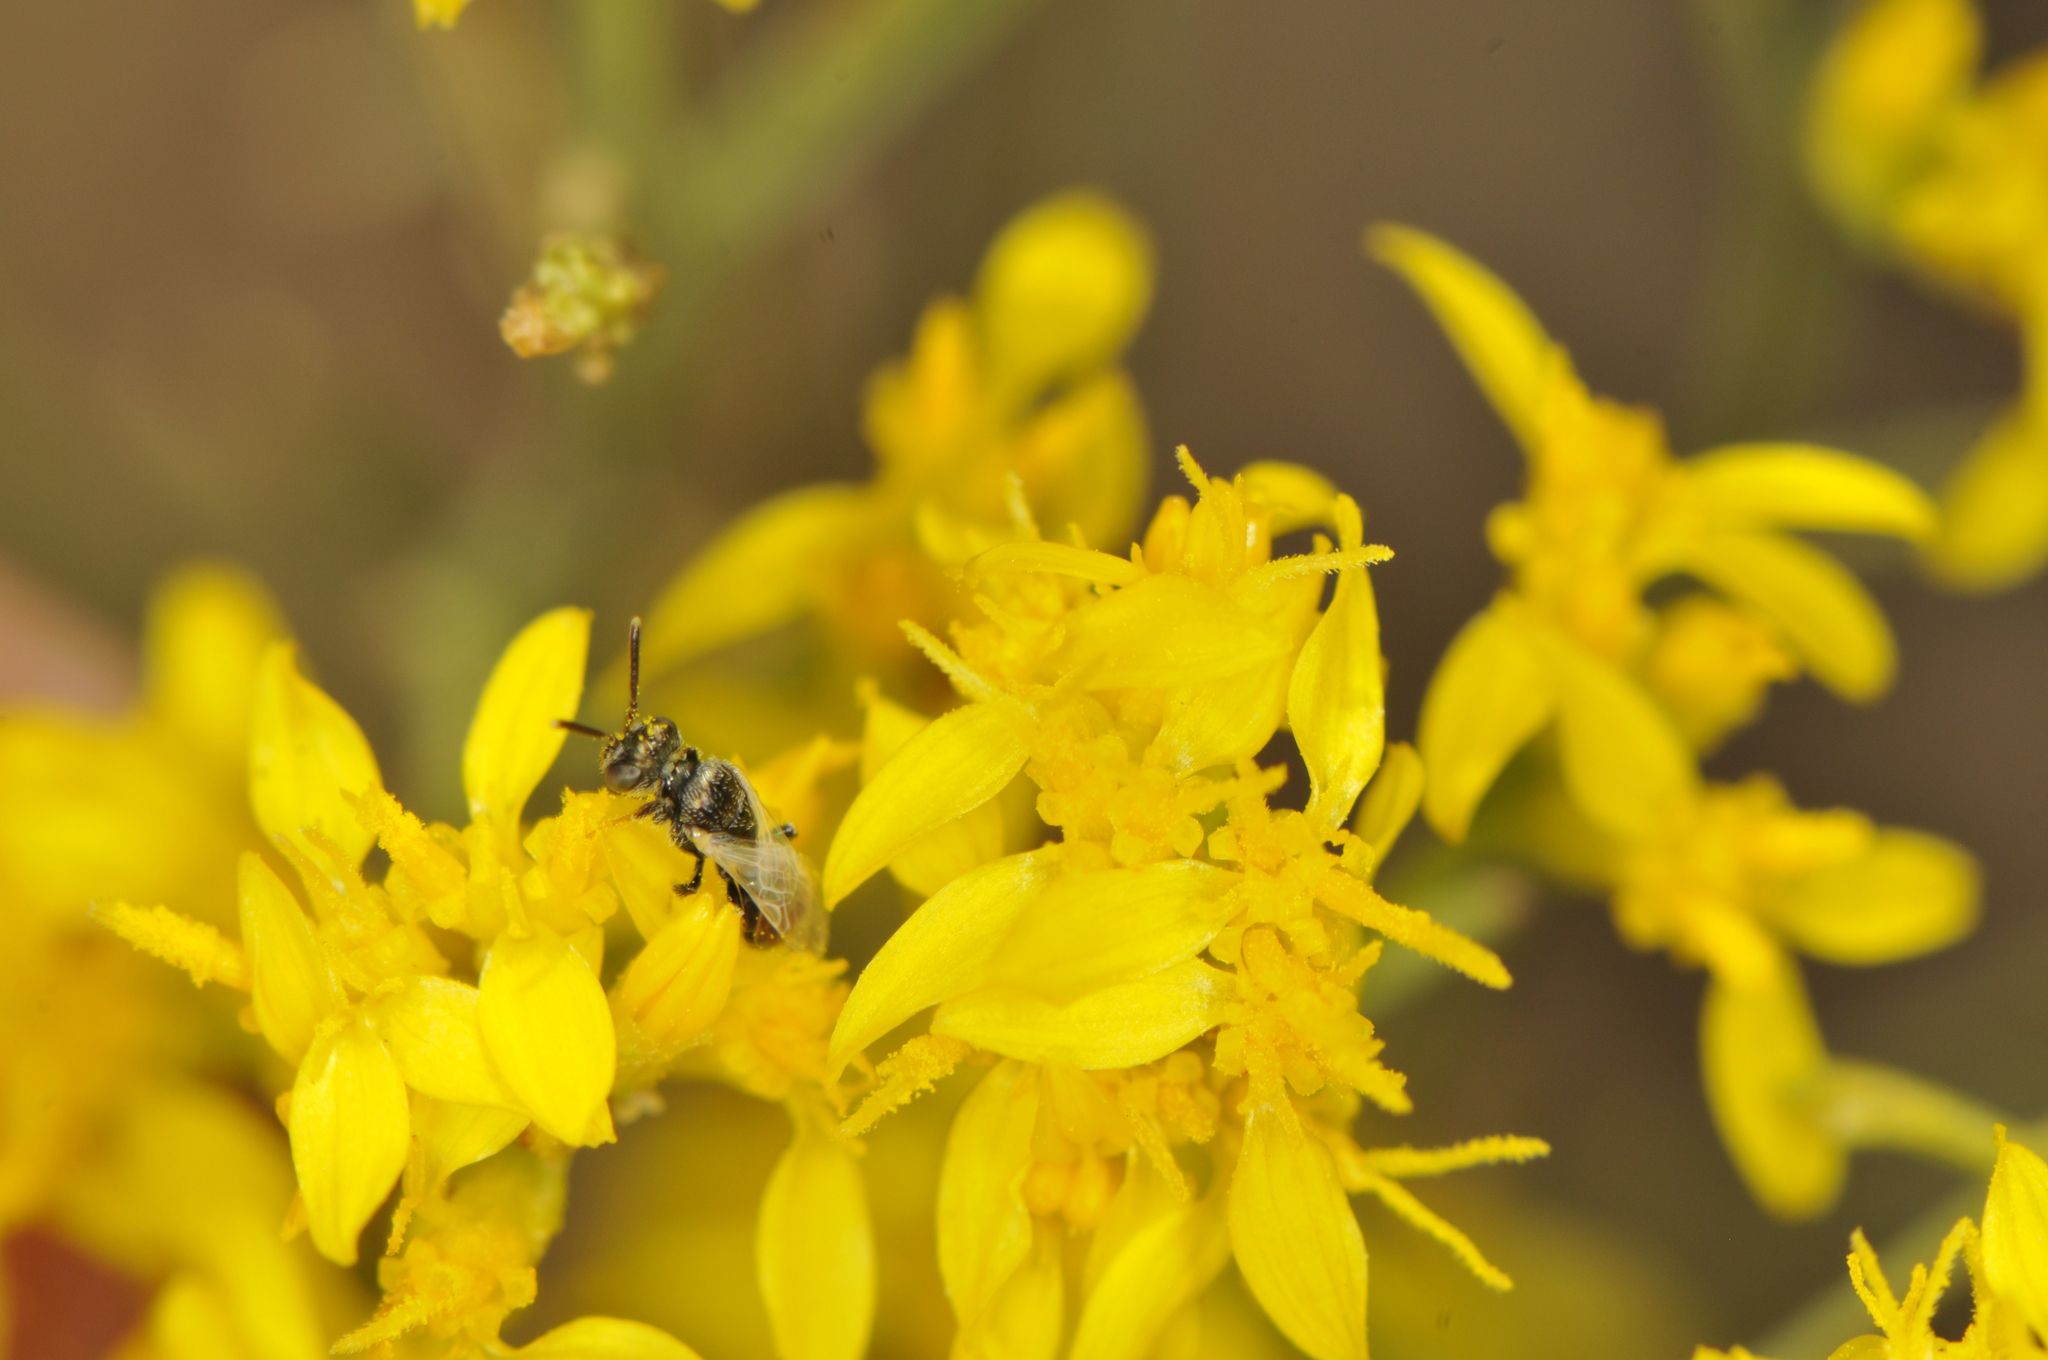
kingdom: Plantae
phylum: Tracheophyta
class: Magnoliopsida
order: Asterales
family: Asteraceae
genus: Gutierrezia
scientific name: Gutierrezia sarothrae
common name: Broom snakeweed
